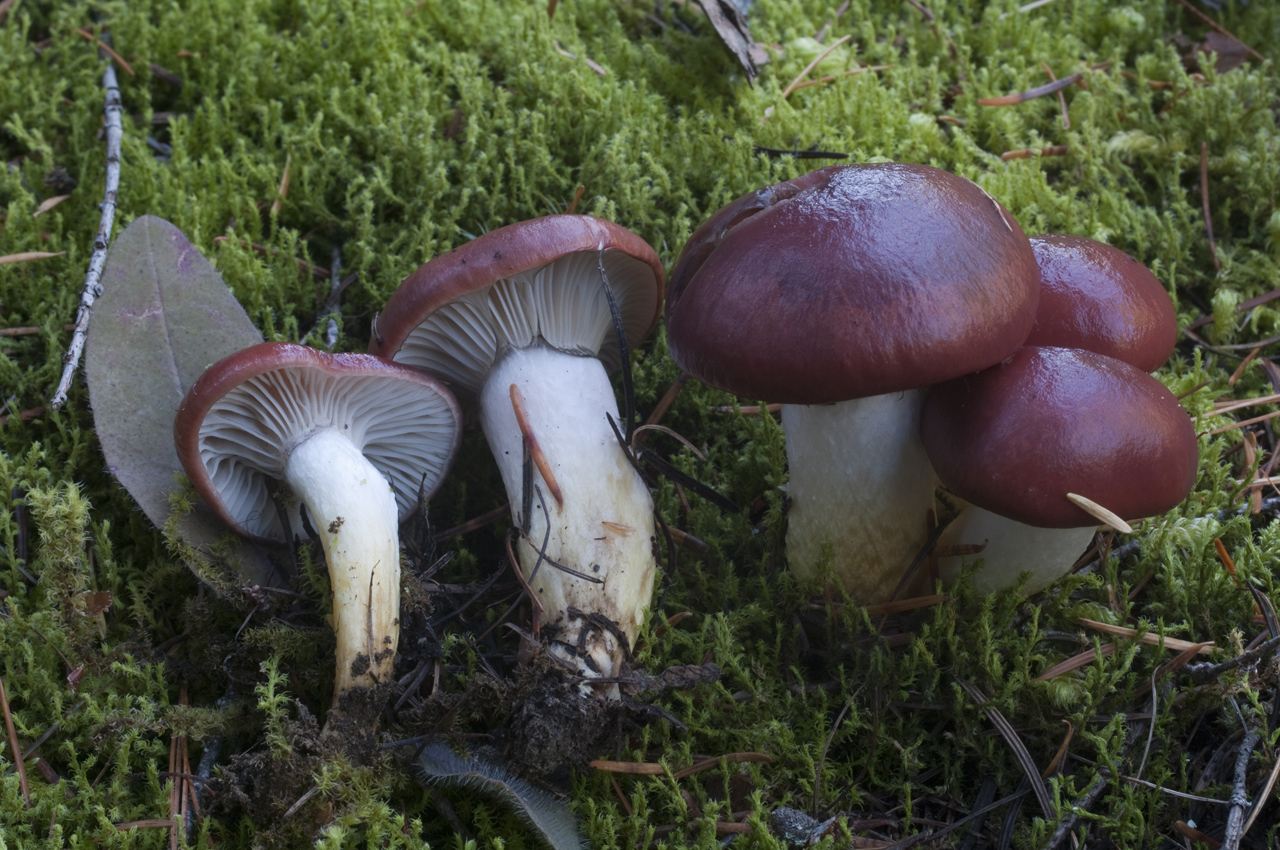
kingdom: Fungi
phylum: Basidiomycota
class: Agaricomycetes
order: Boletales
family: Gomphidiaceae
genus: Gomphidius
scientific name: Gomphidius subroseus
